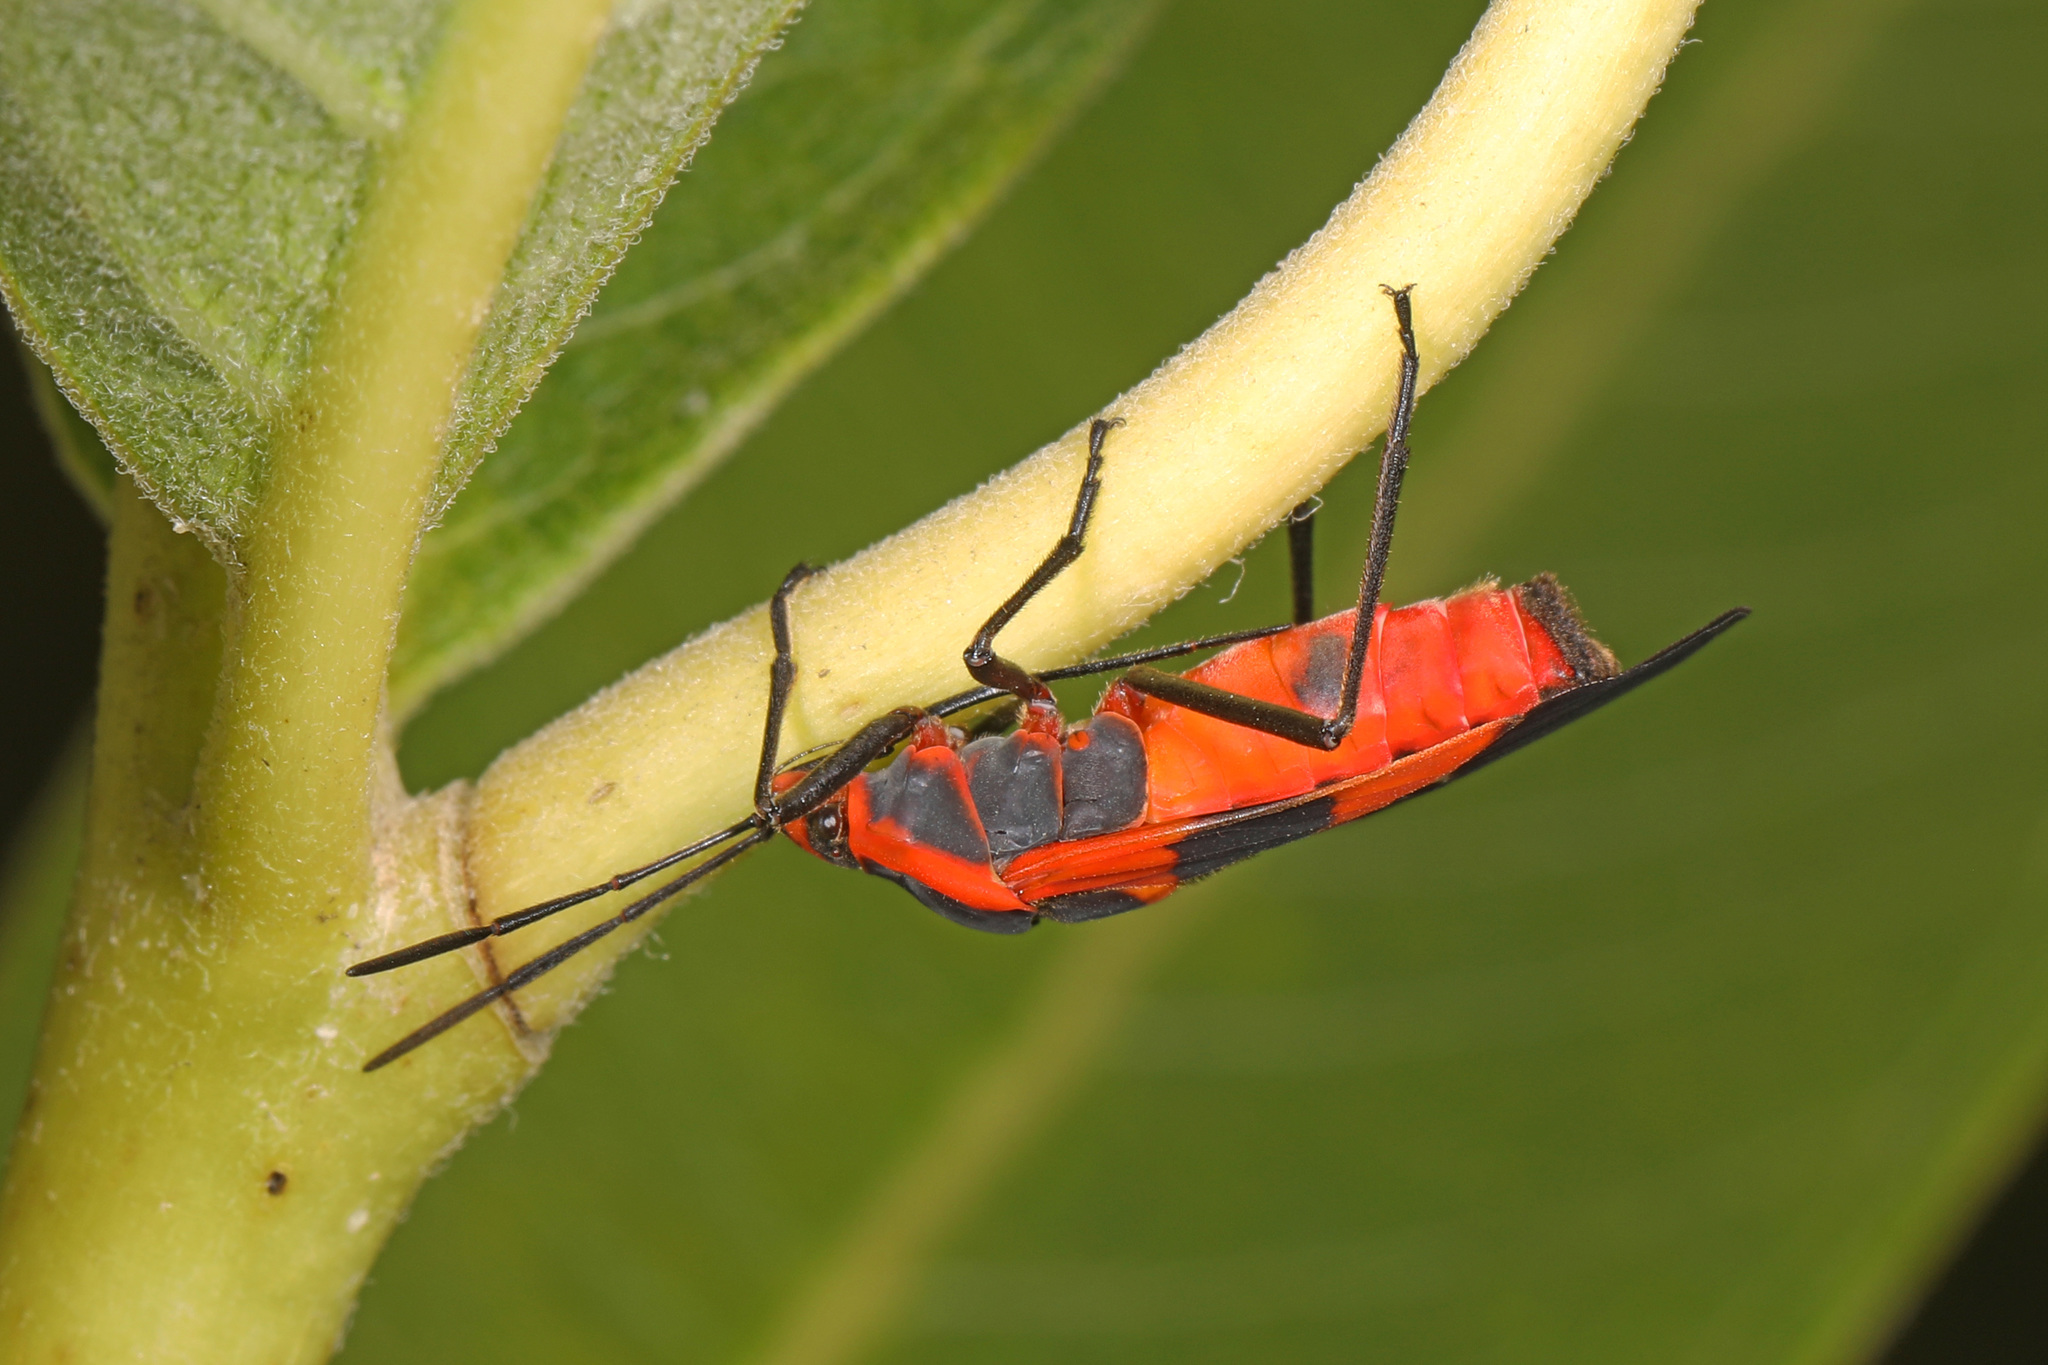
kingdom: Animalia
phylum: Arthropoda
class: Insecta
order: Hemiptera
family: Lygaeidae
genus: Oncopeltus
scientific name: Oncopeltus fasciatus
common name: Large milkweed bug
